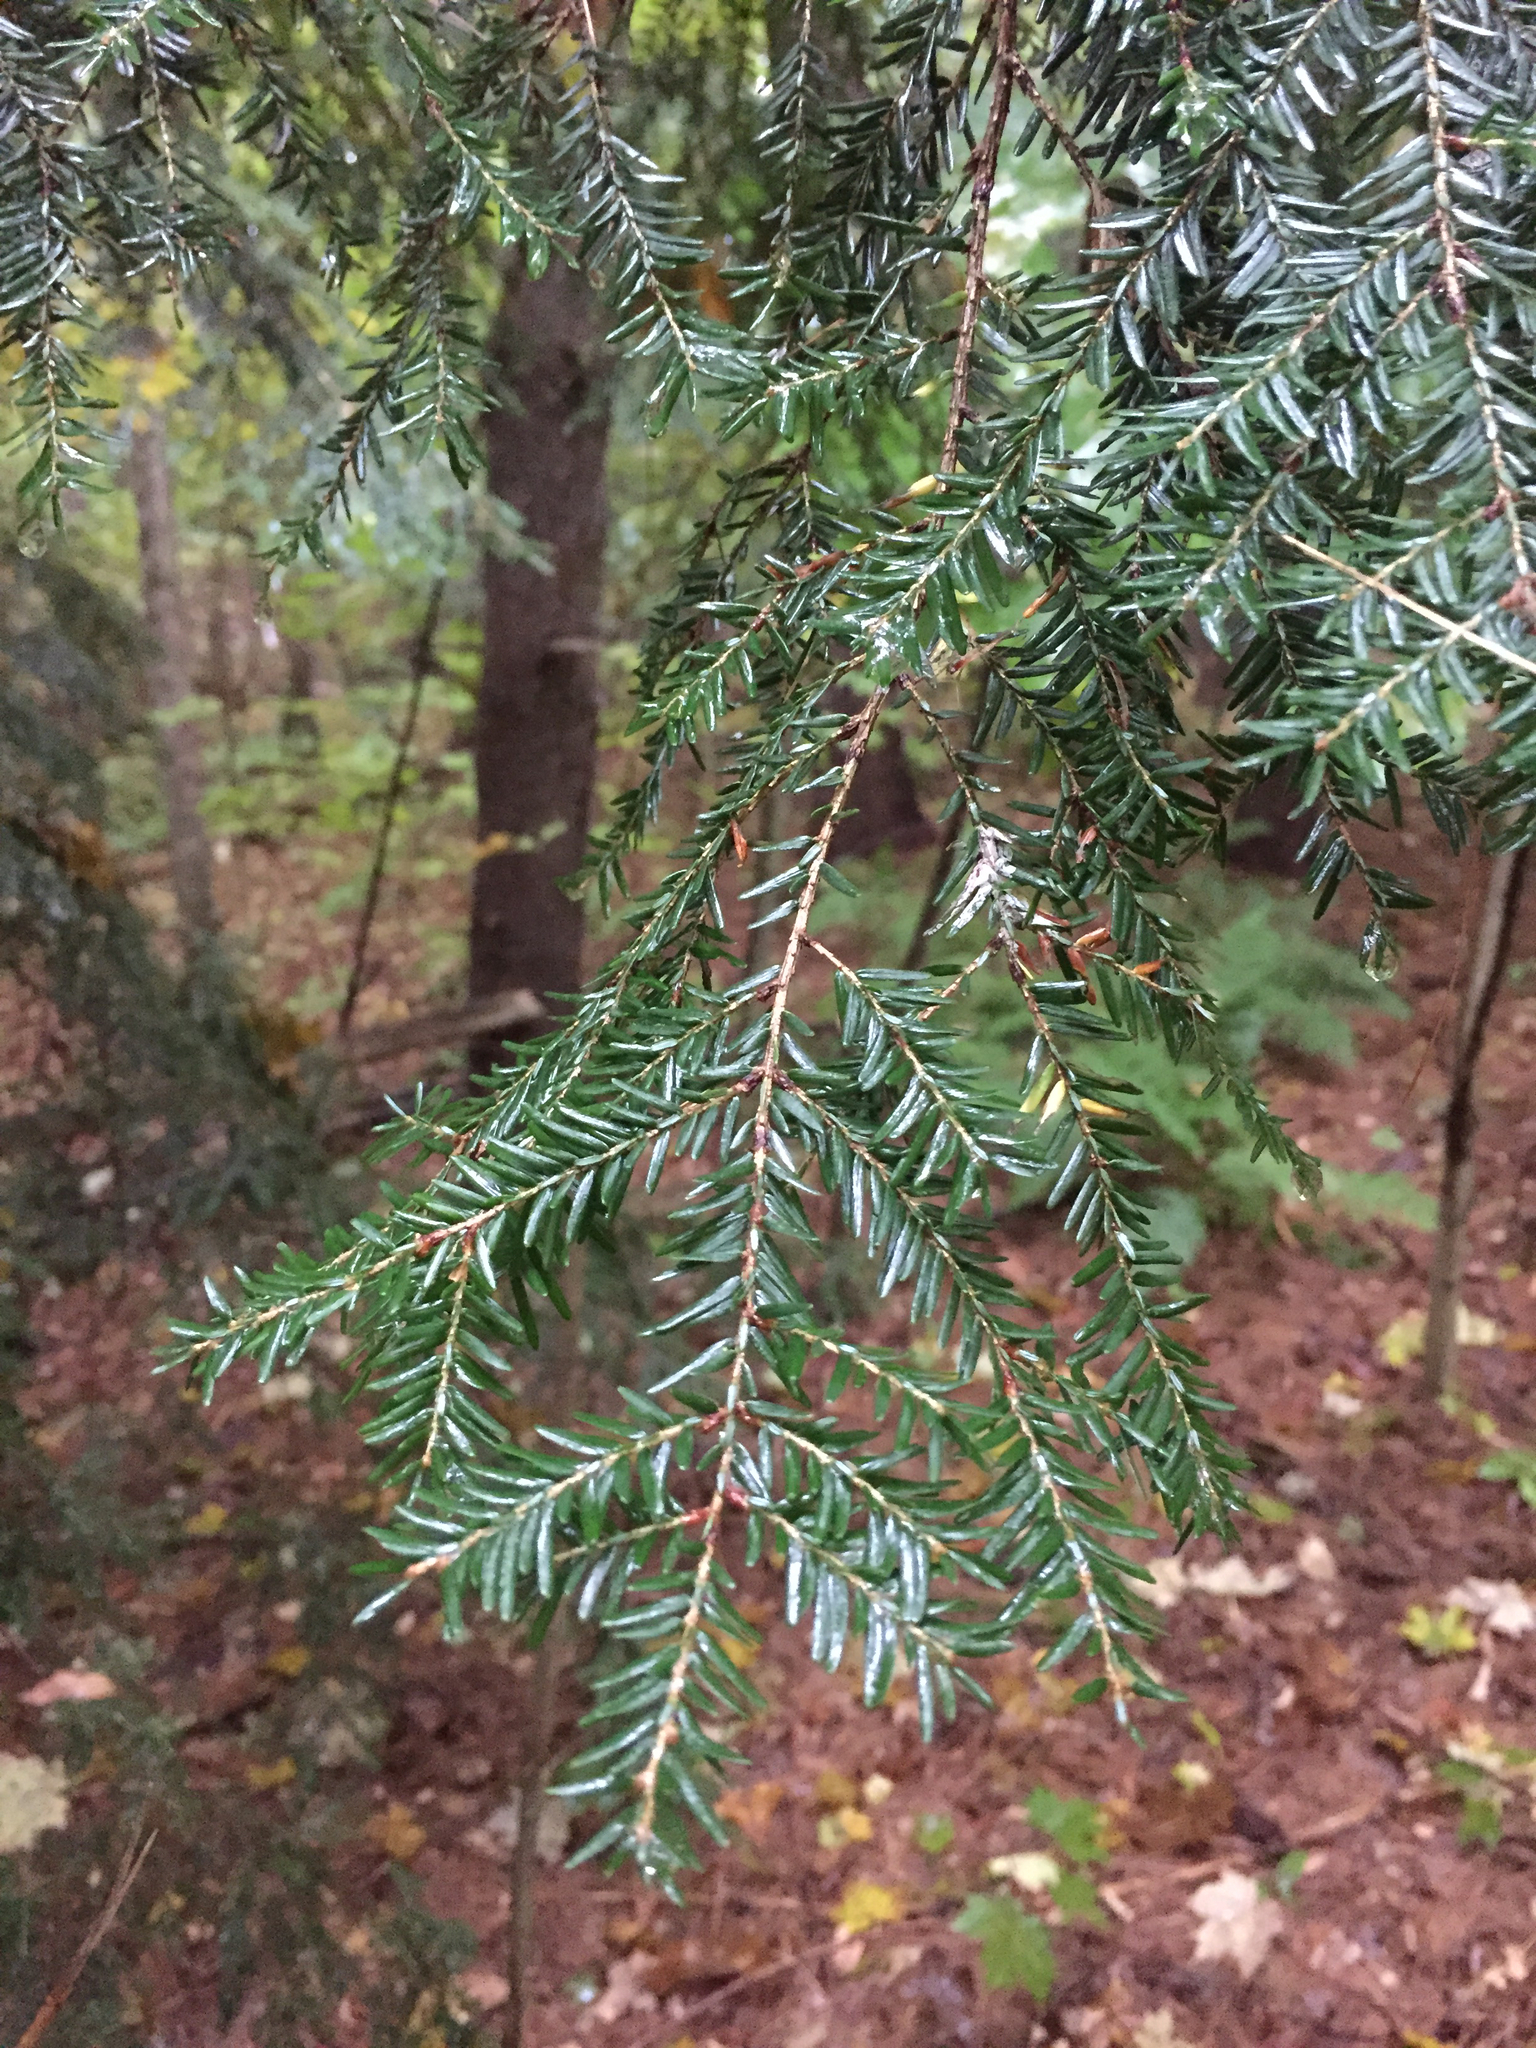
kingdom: Plantae
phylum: Tracheophyta
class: Pinopsida
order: Pinales
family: Pinaceae
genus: Tsuga
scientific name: Tsuga canadensis
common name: Eastern hemlock
